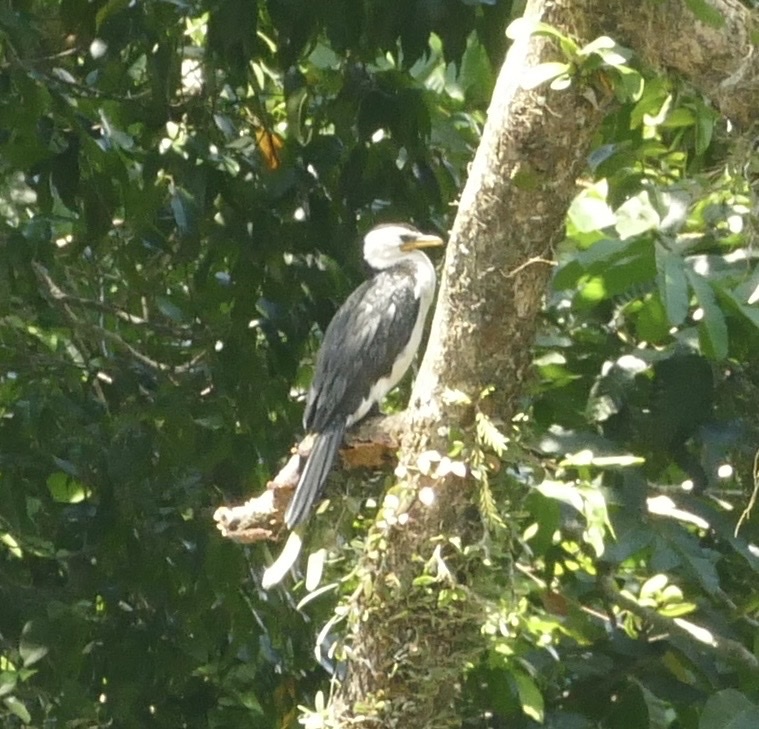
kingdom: Animalia
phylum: Chordata
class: Aves
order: Suliformes
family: Phalacrocoracidae
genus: Microcarbo
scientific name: Microcarbo melanoleucos
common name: Little pied cormorant
